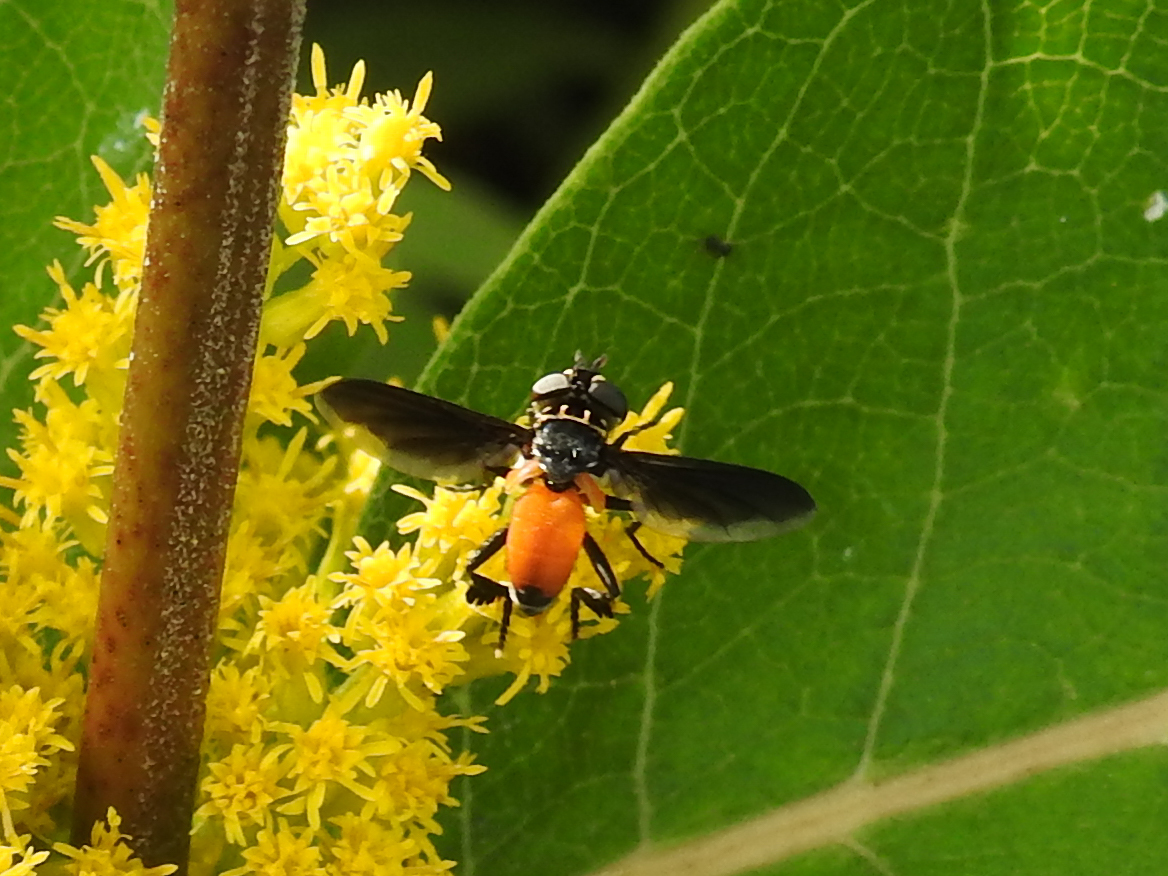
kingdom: Animalia
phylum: Arthropoda
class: Insecta
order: Diptera
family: Tachinidae
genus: Trichopoda
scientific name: Trichopoda pennipes
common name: Tachinid fly
